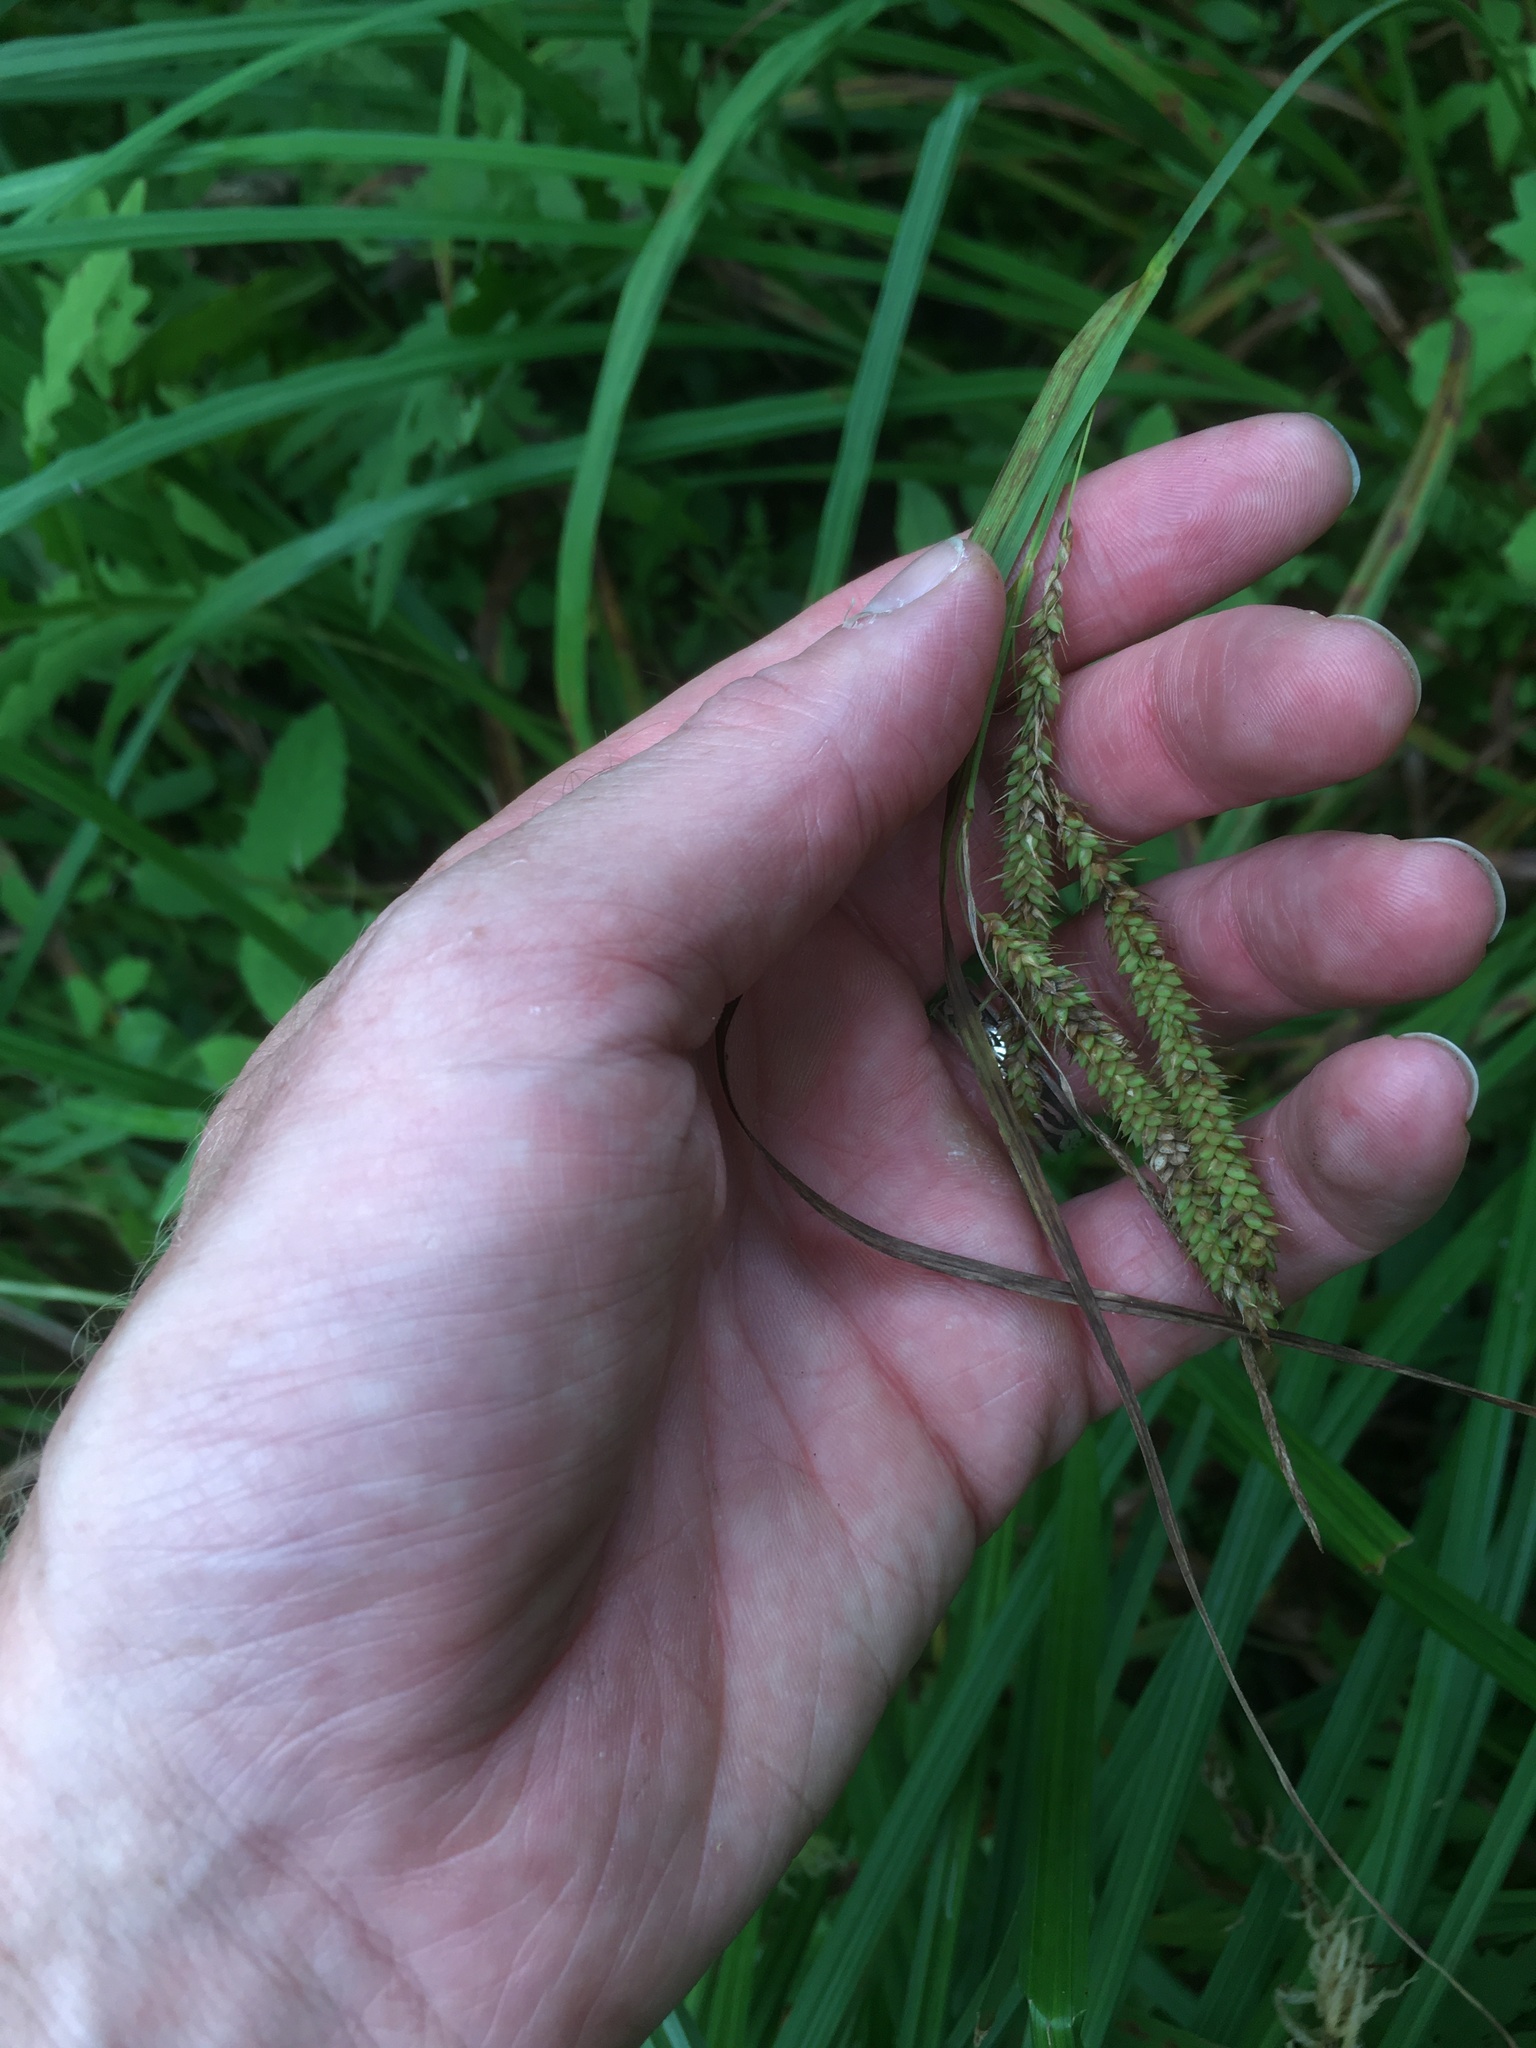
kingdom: Plantae
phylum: Tracheophyta
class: Liliopsida
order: Poales
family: Cyperaceae
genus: Carex
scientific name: Carex gynandra
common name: Nodding sedge
